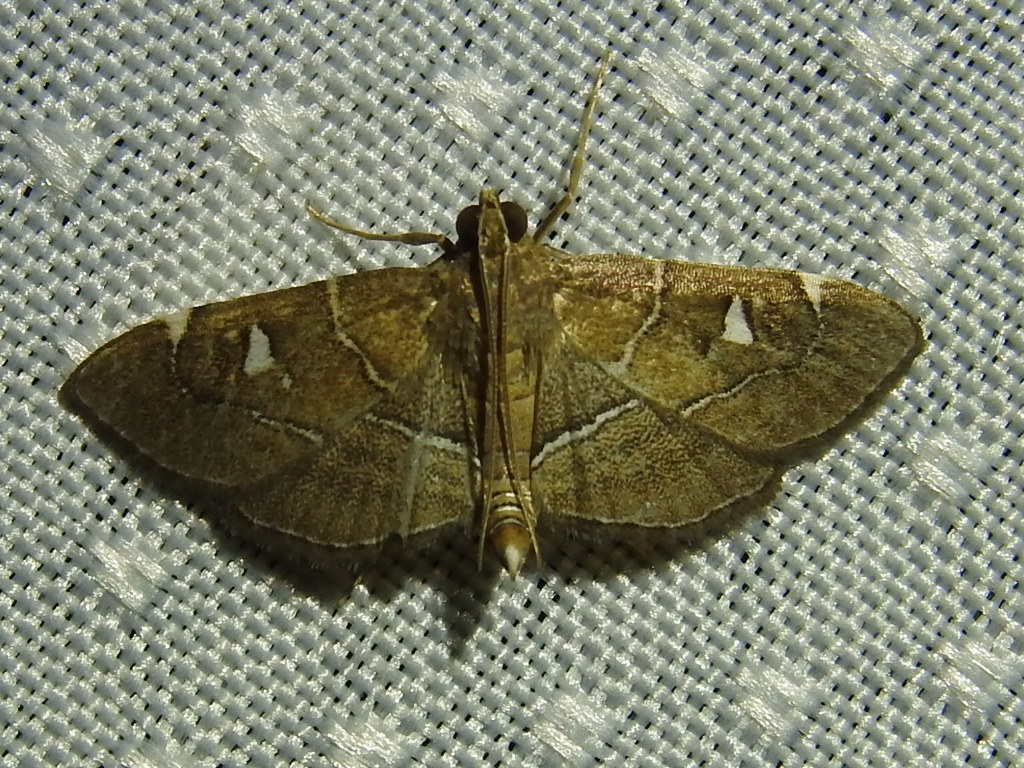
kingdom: Animalia
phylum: Arthropoda
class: Insecta
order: Lepidoptera
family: Crambidae
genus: Lamprosema
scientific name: Lamprosema victoriae
